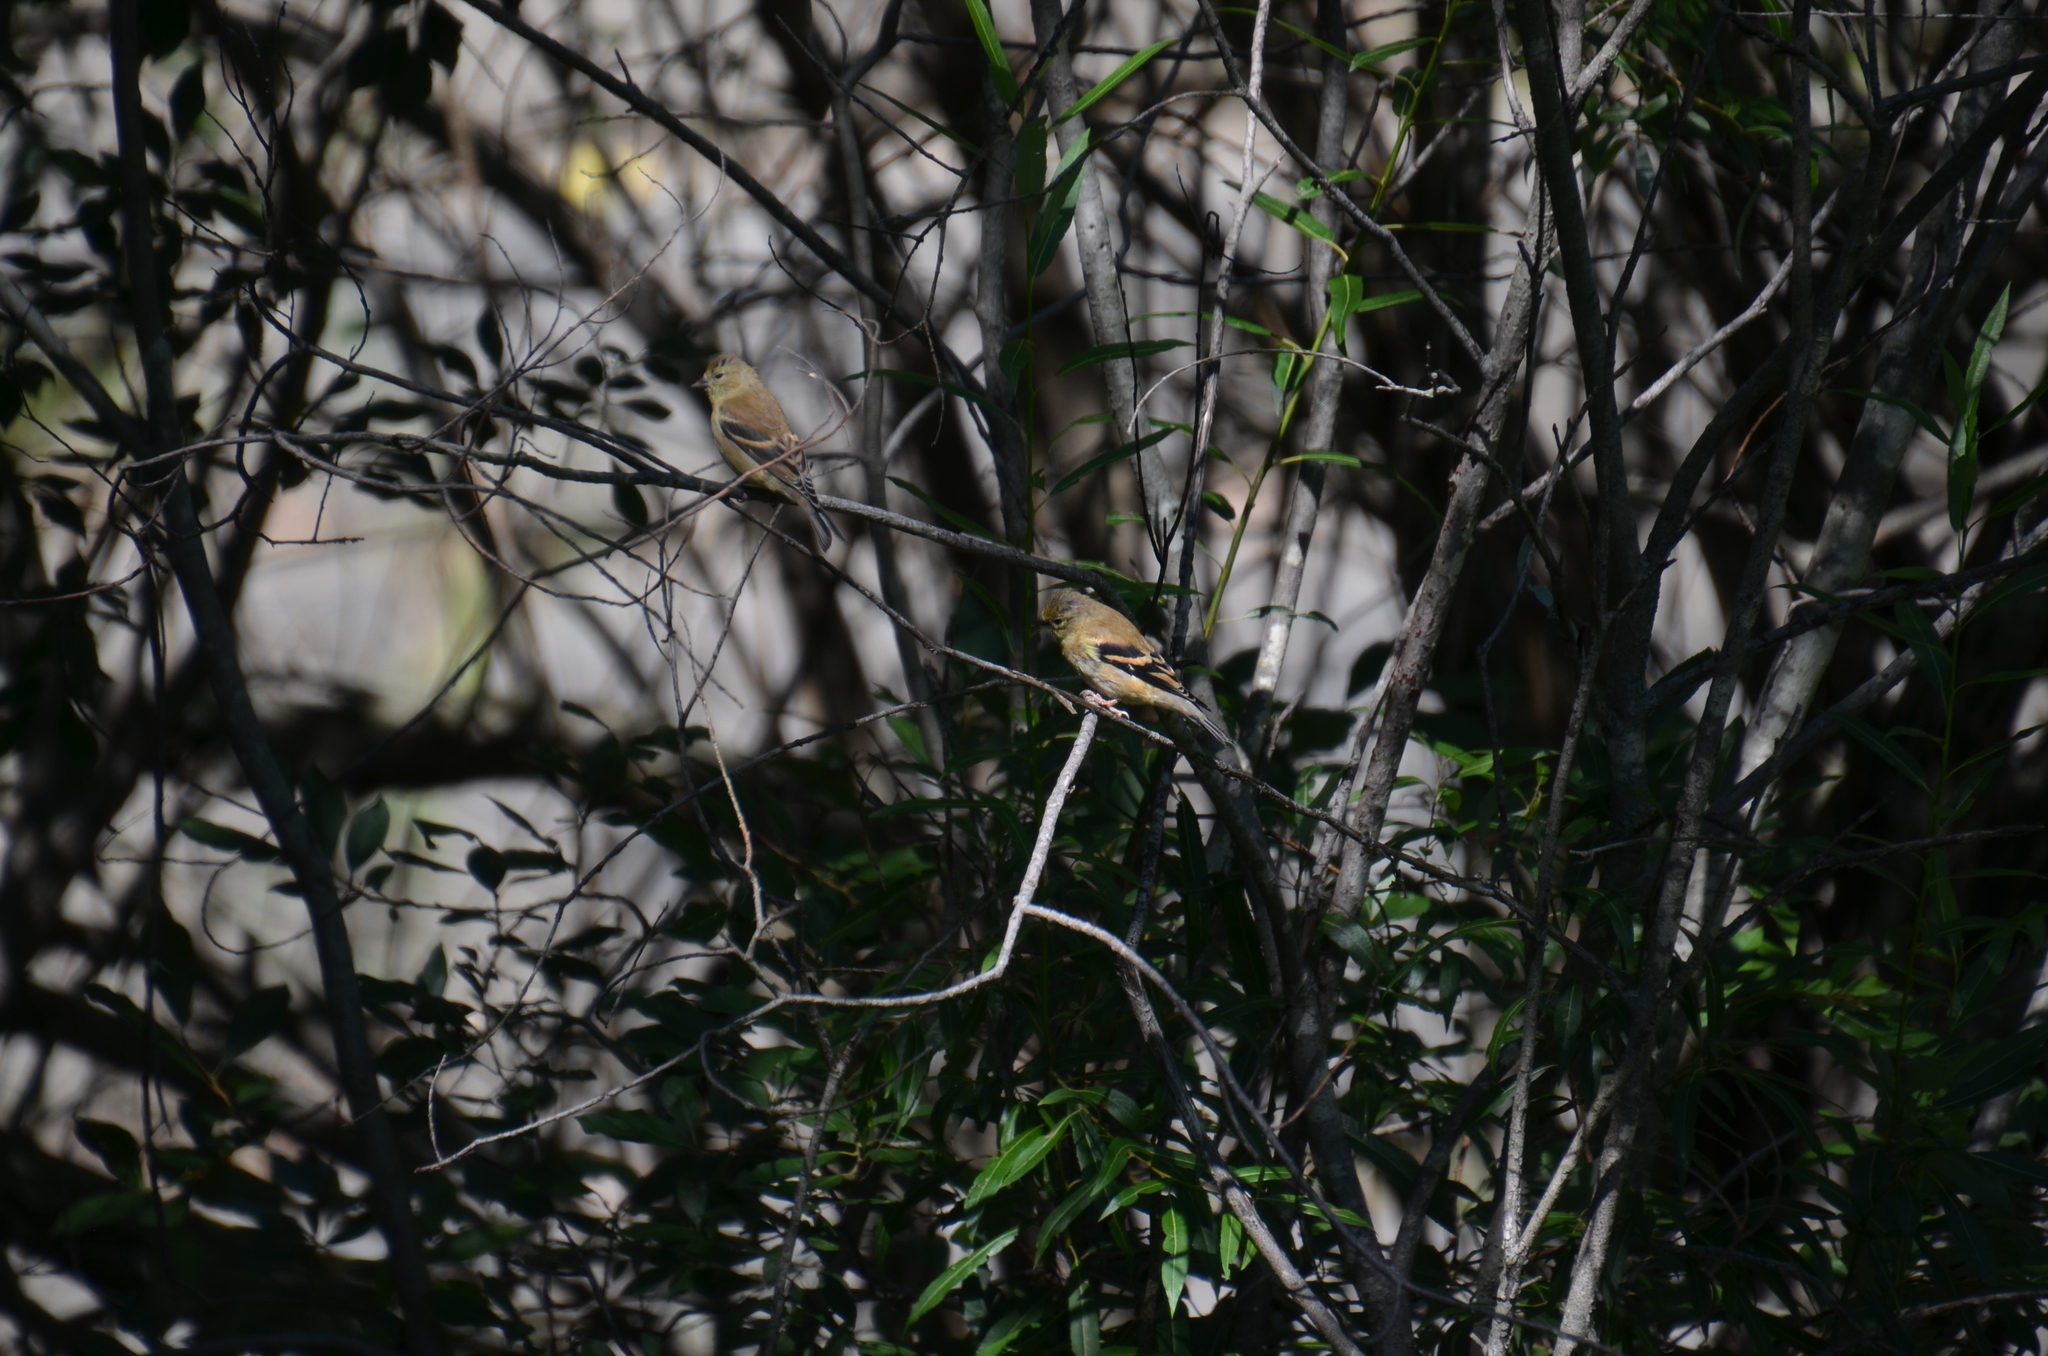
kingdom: Animalia
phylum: Chordata
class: Aves
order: Passeriformes
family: Fringillidae
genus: Spinus
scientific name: Spinus tristis
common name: American goldfinch
